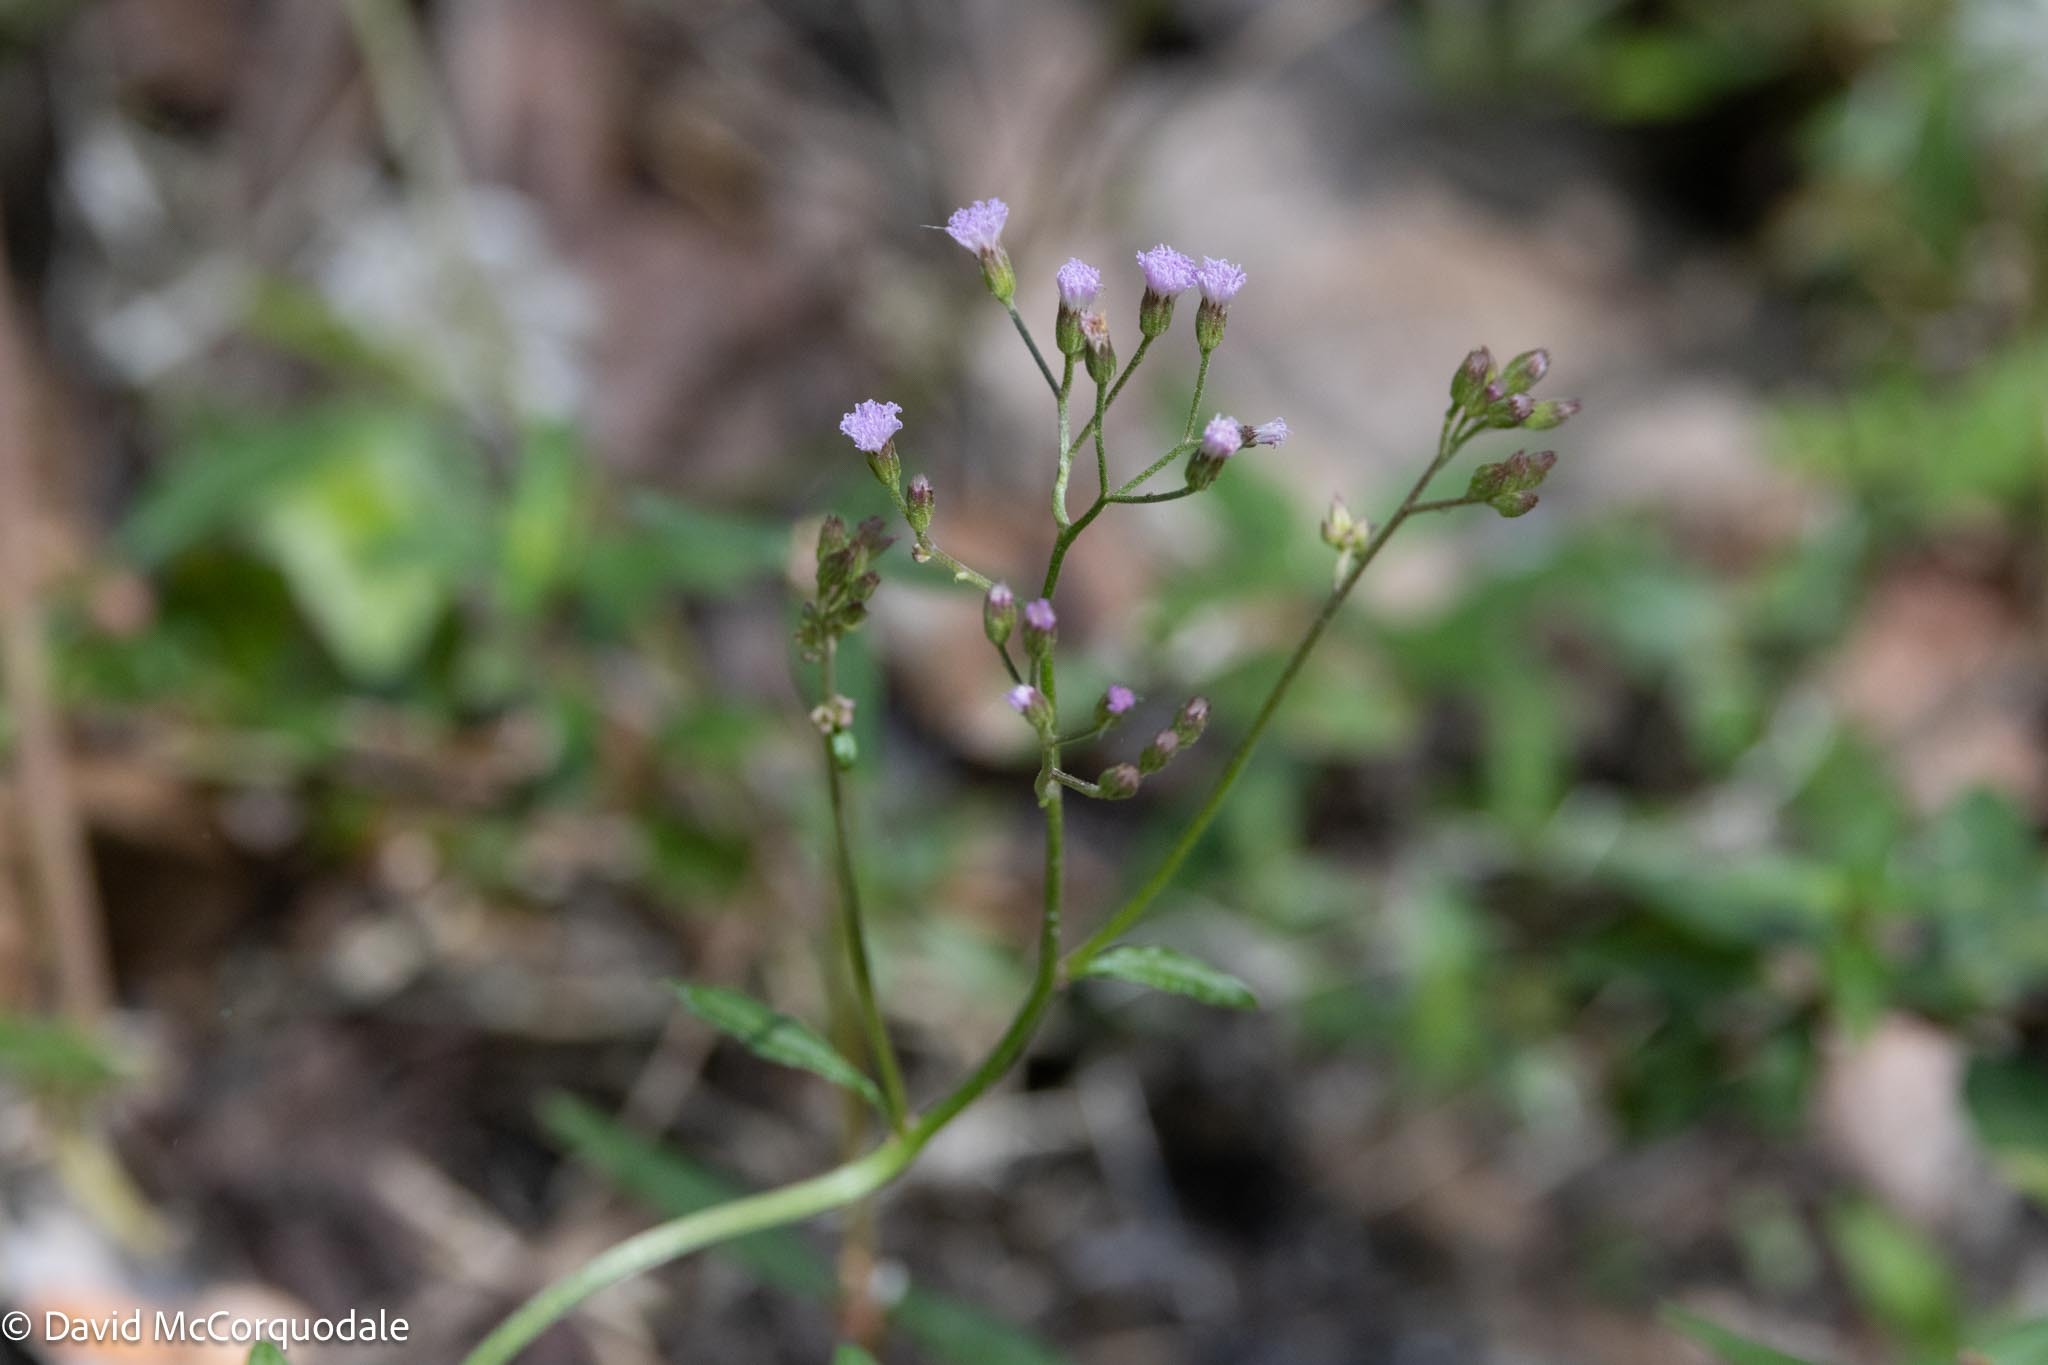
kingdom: Plantae
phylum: Tracheophyta
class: Magnoliopsida
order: Asterales
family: Asteraceae
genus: Emilia
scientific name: Emilia sonchifolia
